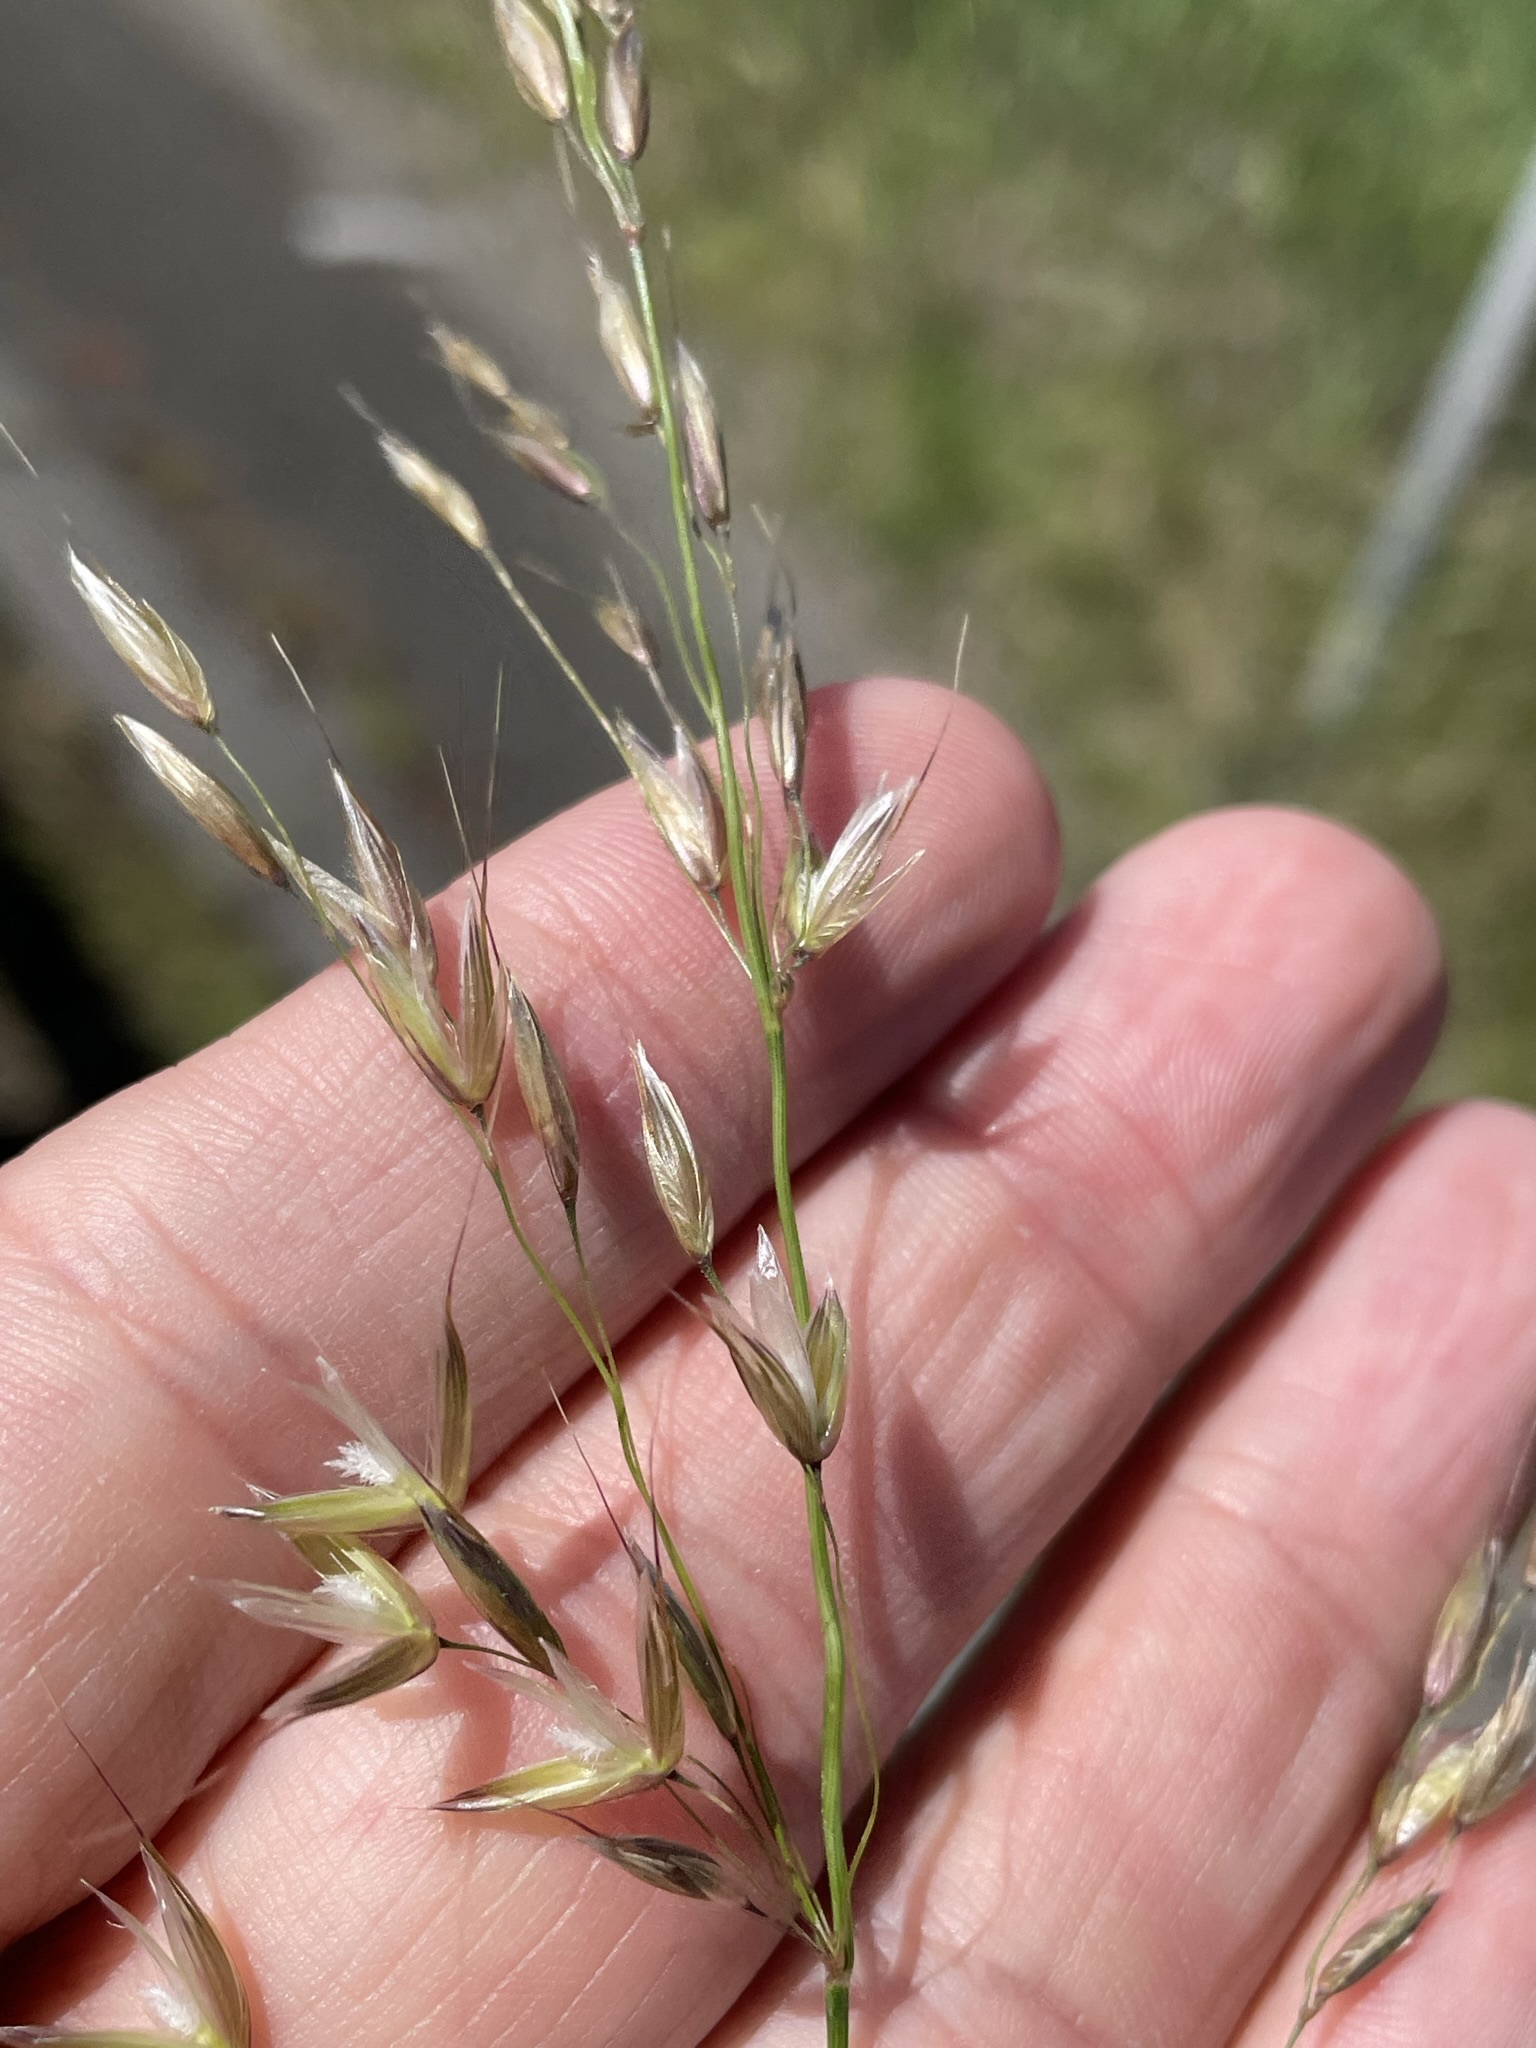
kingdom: Plantae
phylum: Tracheophyta
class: Liliopsida
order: Poales
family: Poaceae
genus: Arrhenatherum
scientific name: Arrhenatherum elatius
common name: Tall oatgrass
